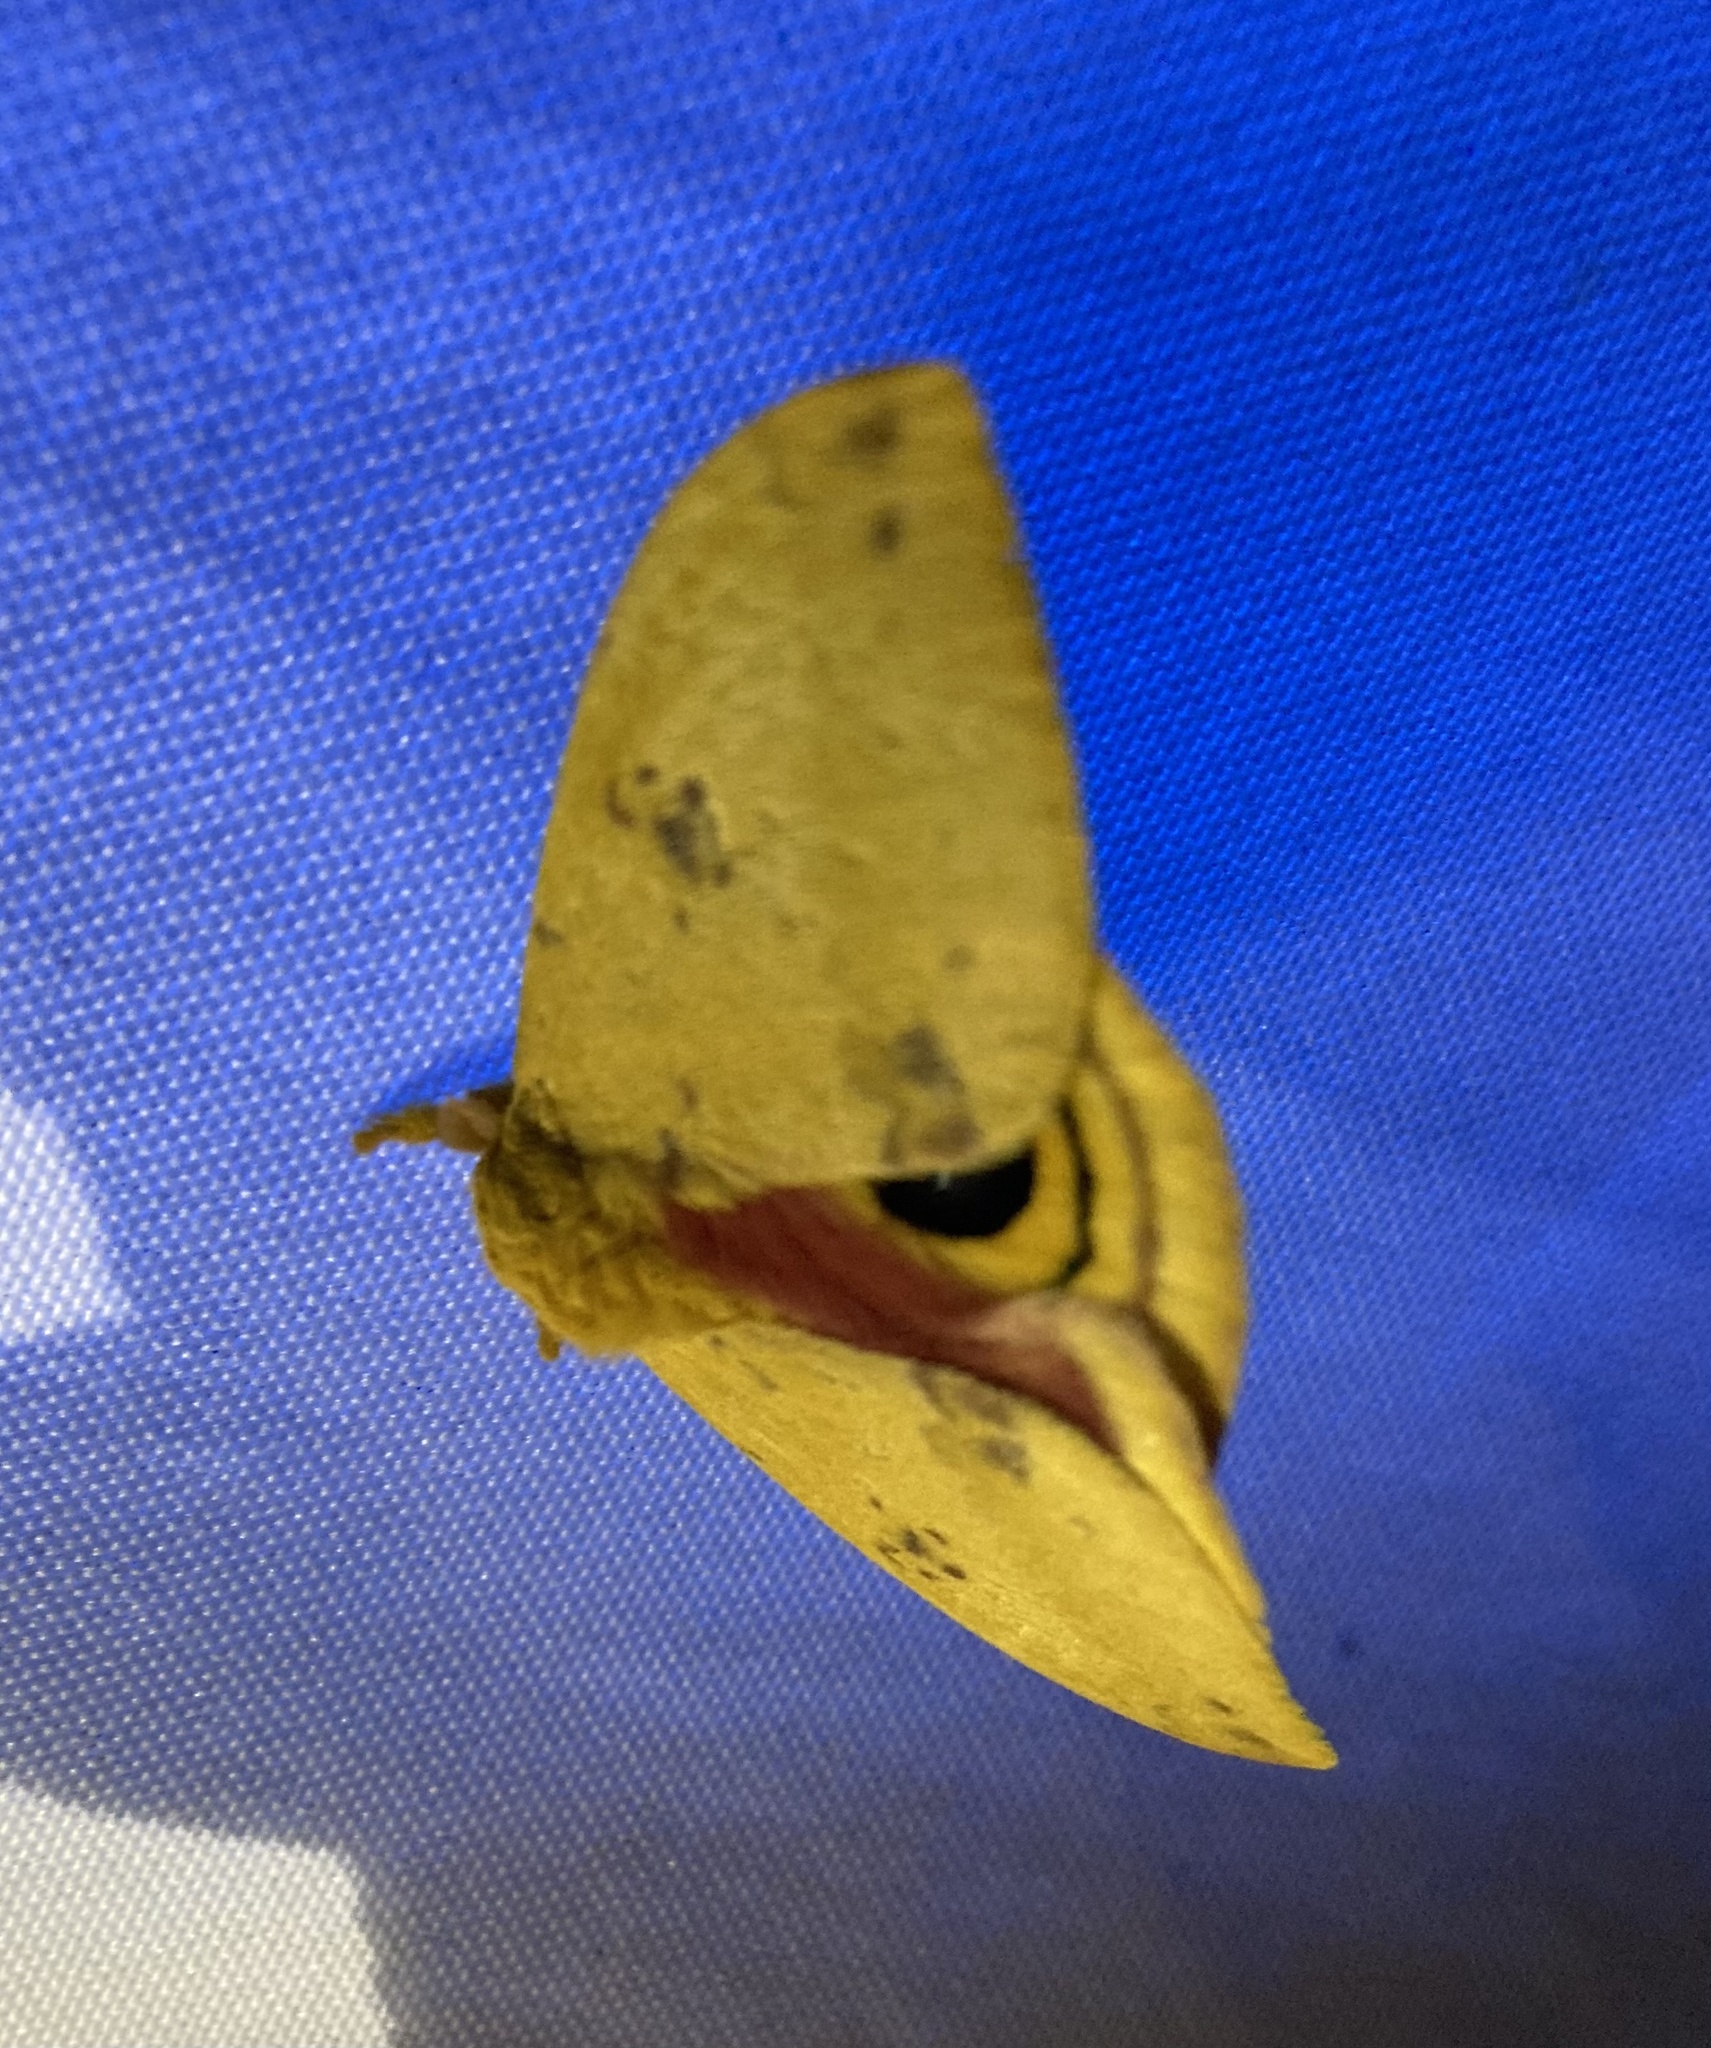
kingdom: Animalia
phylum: Arthropoda
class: Insecta
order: Lepidoptera
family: Saturniidae
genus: Automeris
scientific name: Automeris io
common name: Io moth
